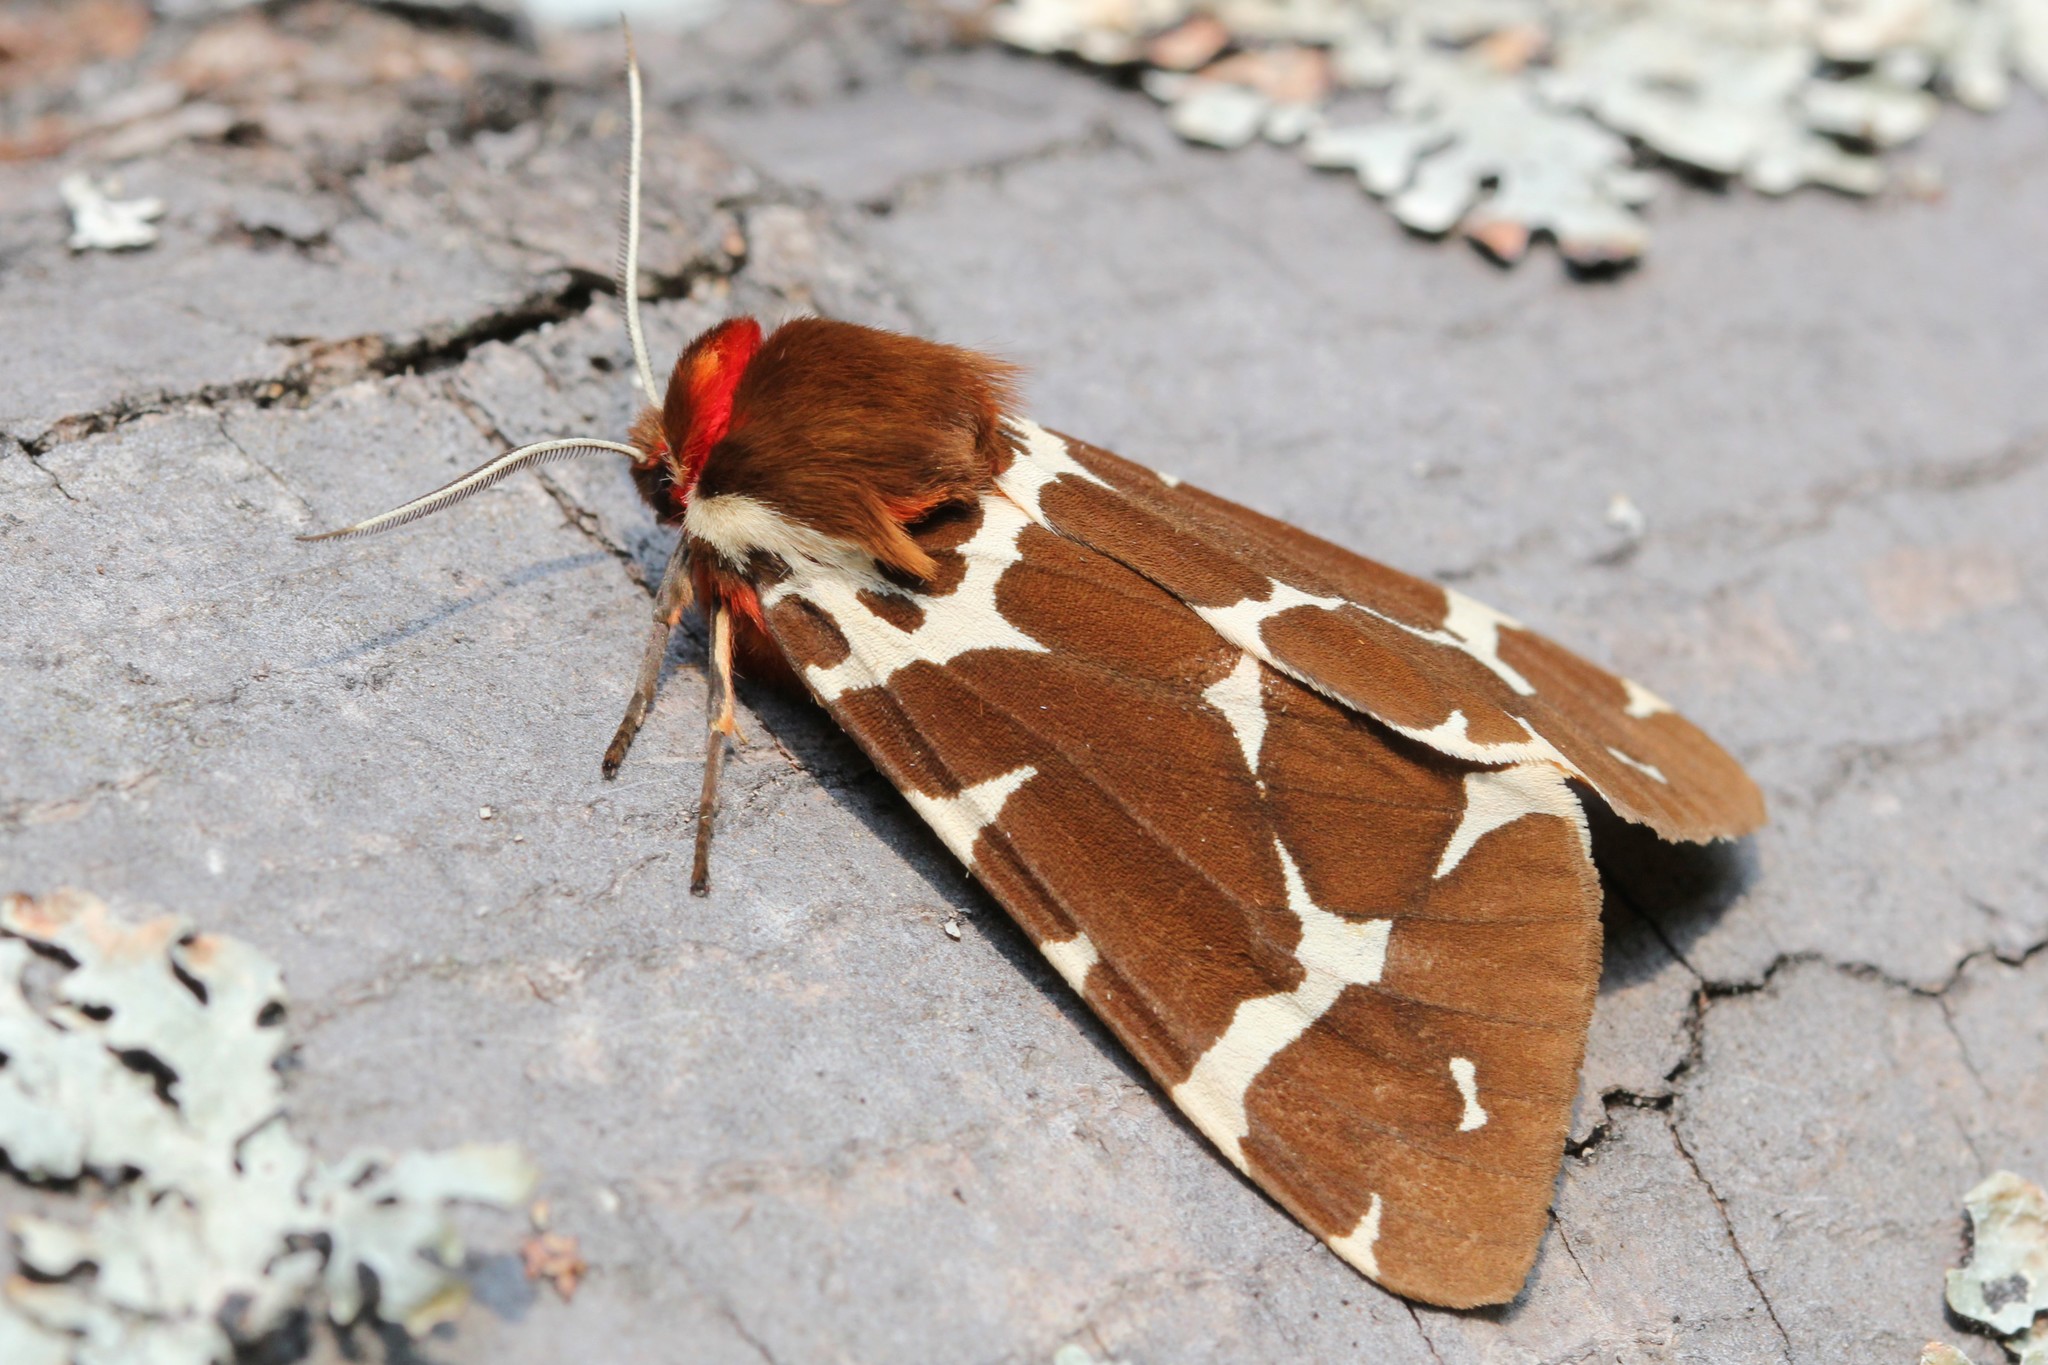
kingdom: Animalia
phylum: Arthropoda
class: Insecta
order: Lepidoptera
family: Erebidae
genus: Arctia
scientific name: Arctia caja
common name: Garden tiger
